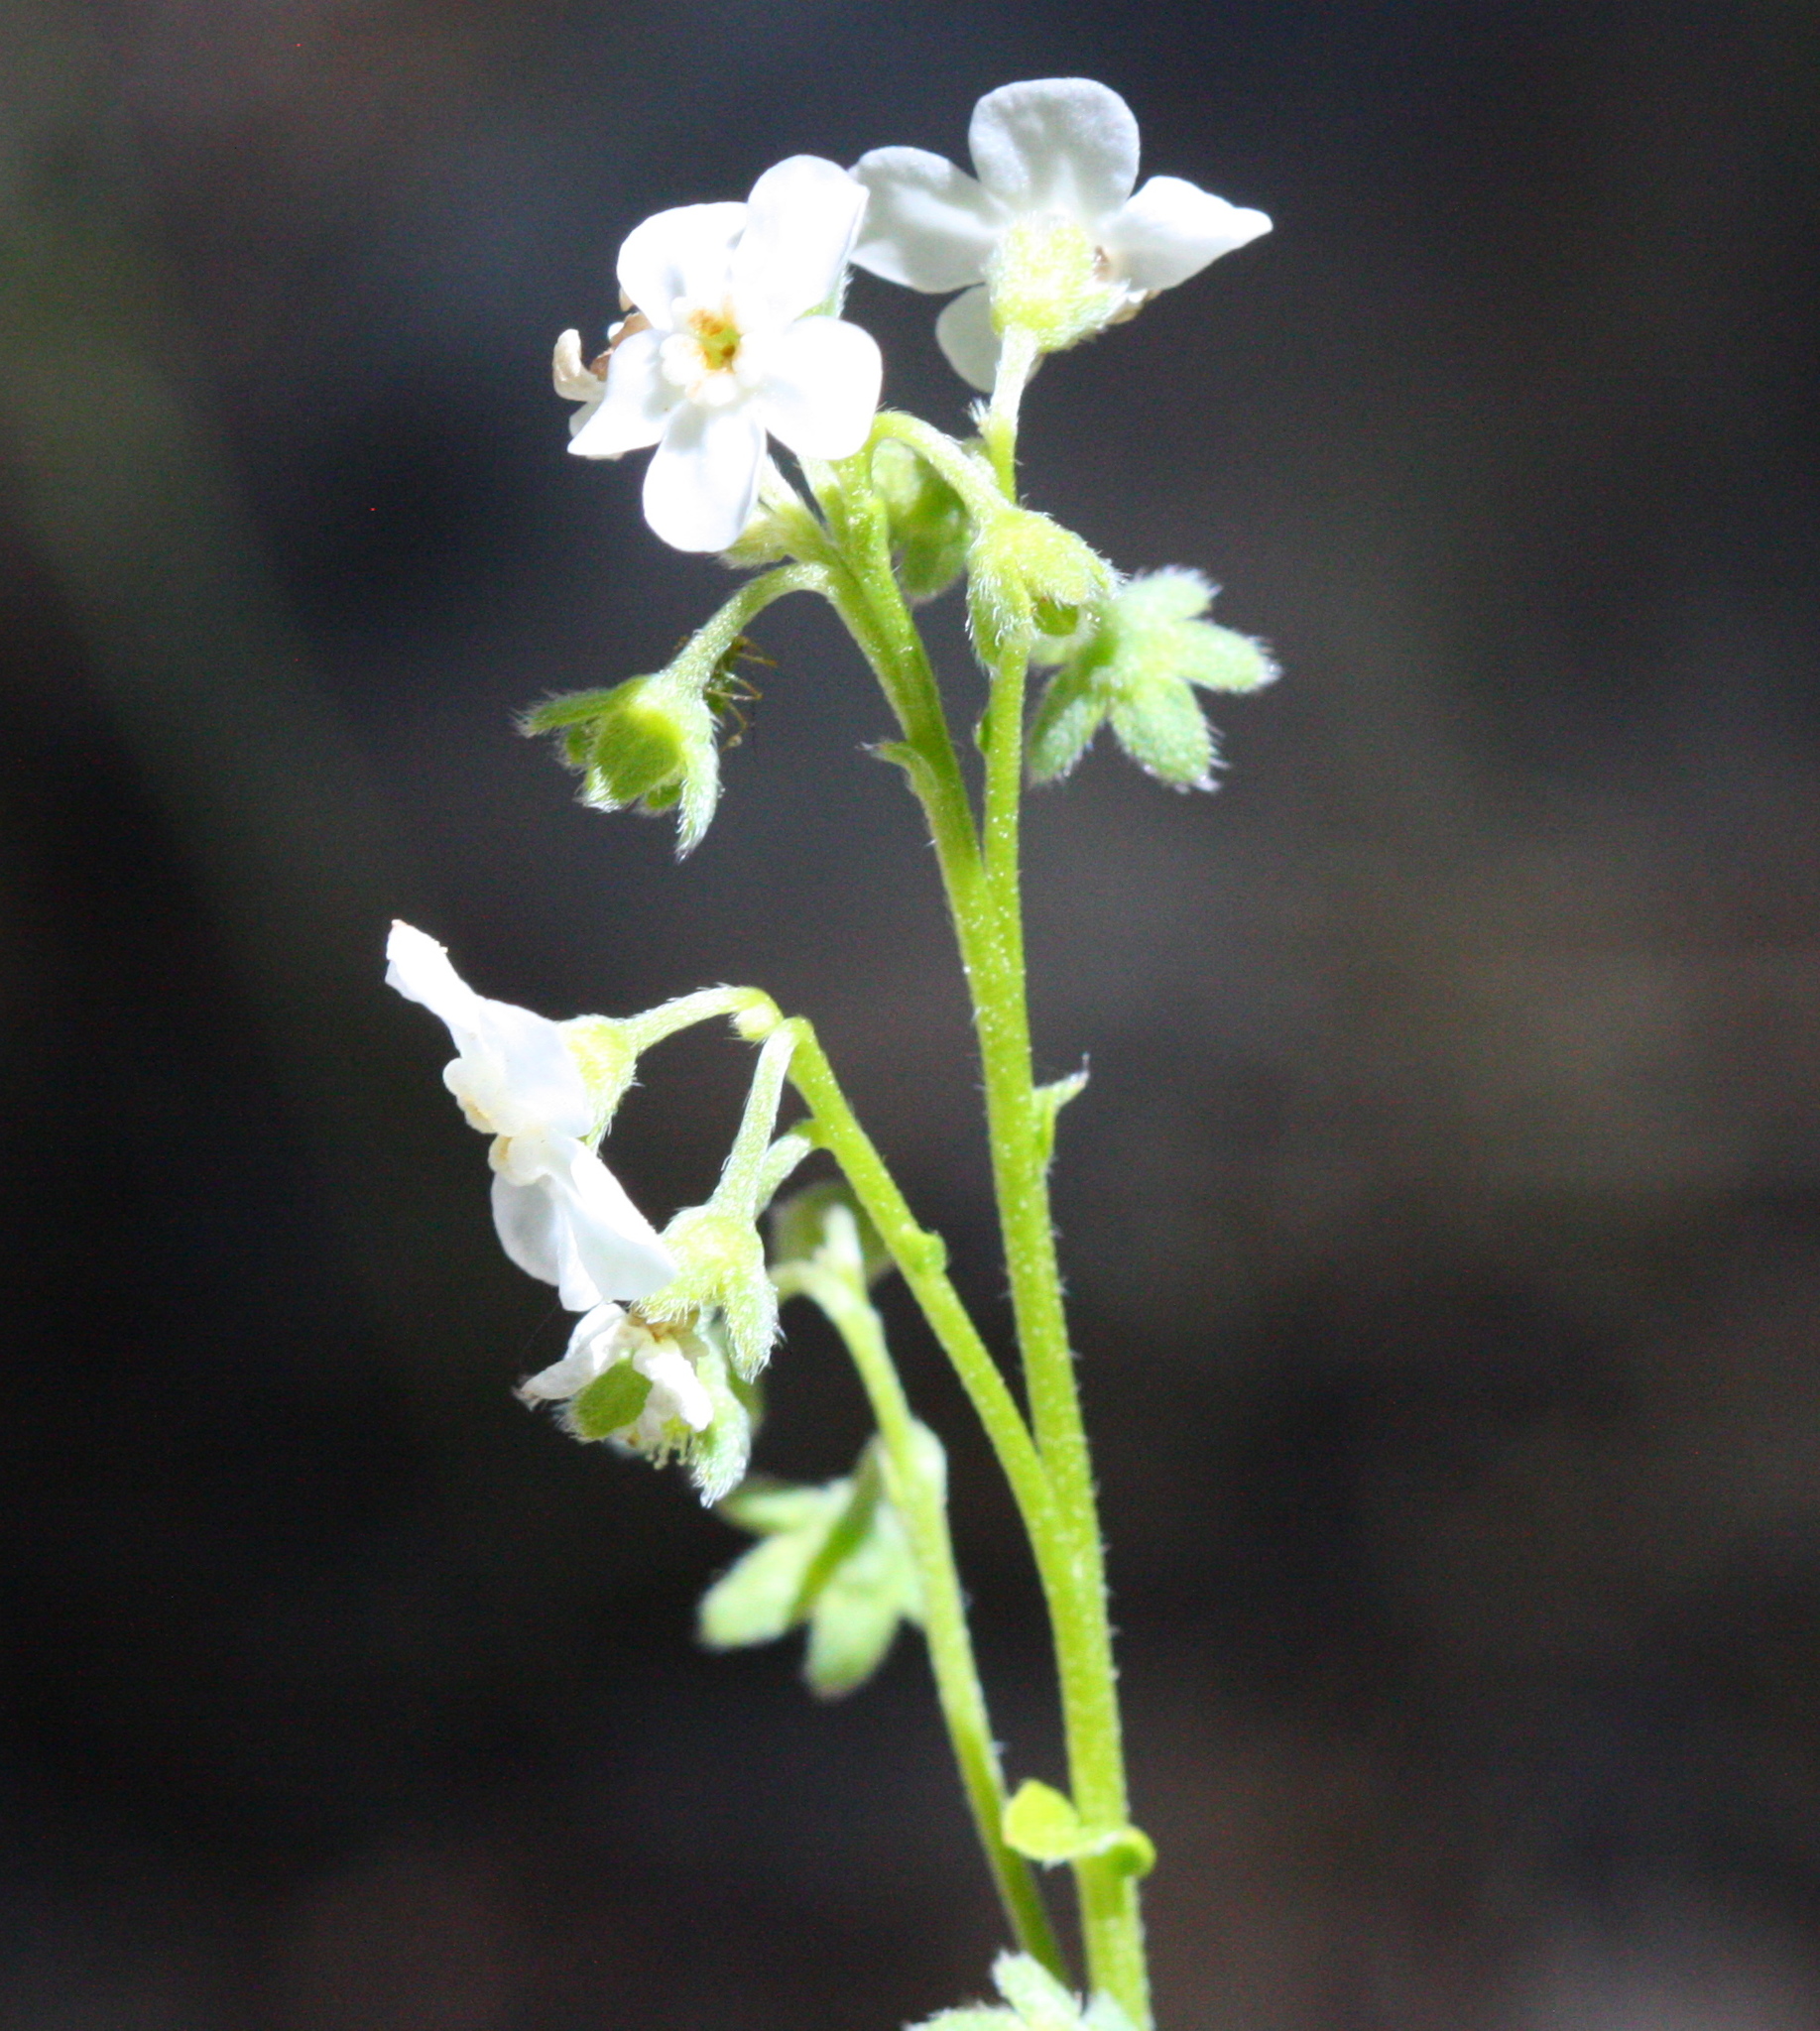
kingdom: Plantae
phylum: Tracheophyta
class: Magnoliopsida
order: Boraginales
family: Boraginaceae
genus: Hackelia
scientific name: Hackelia californica
